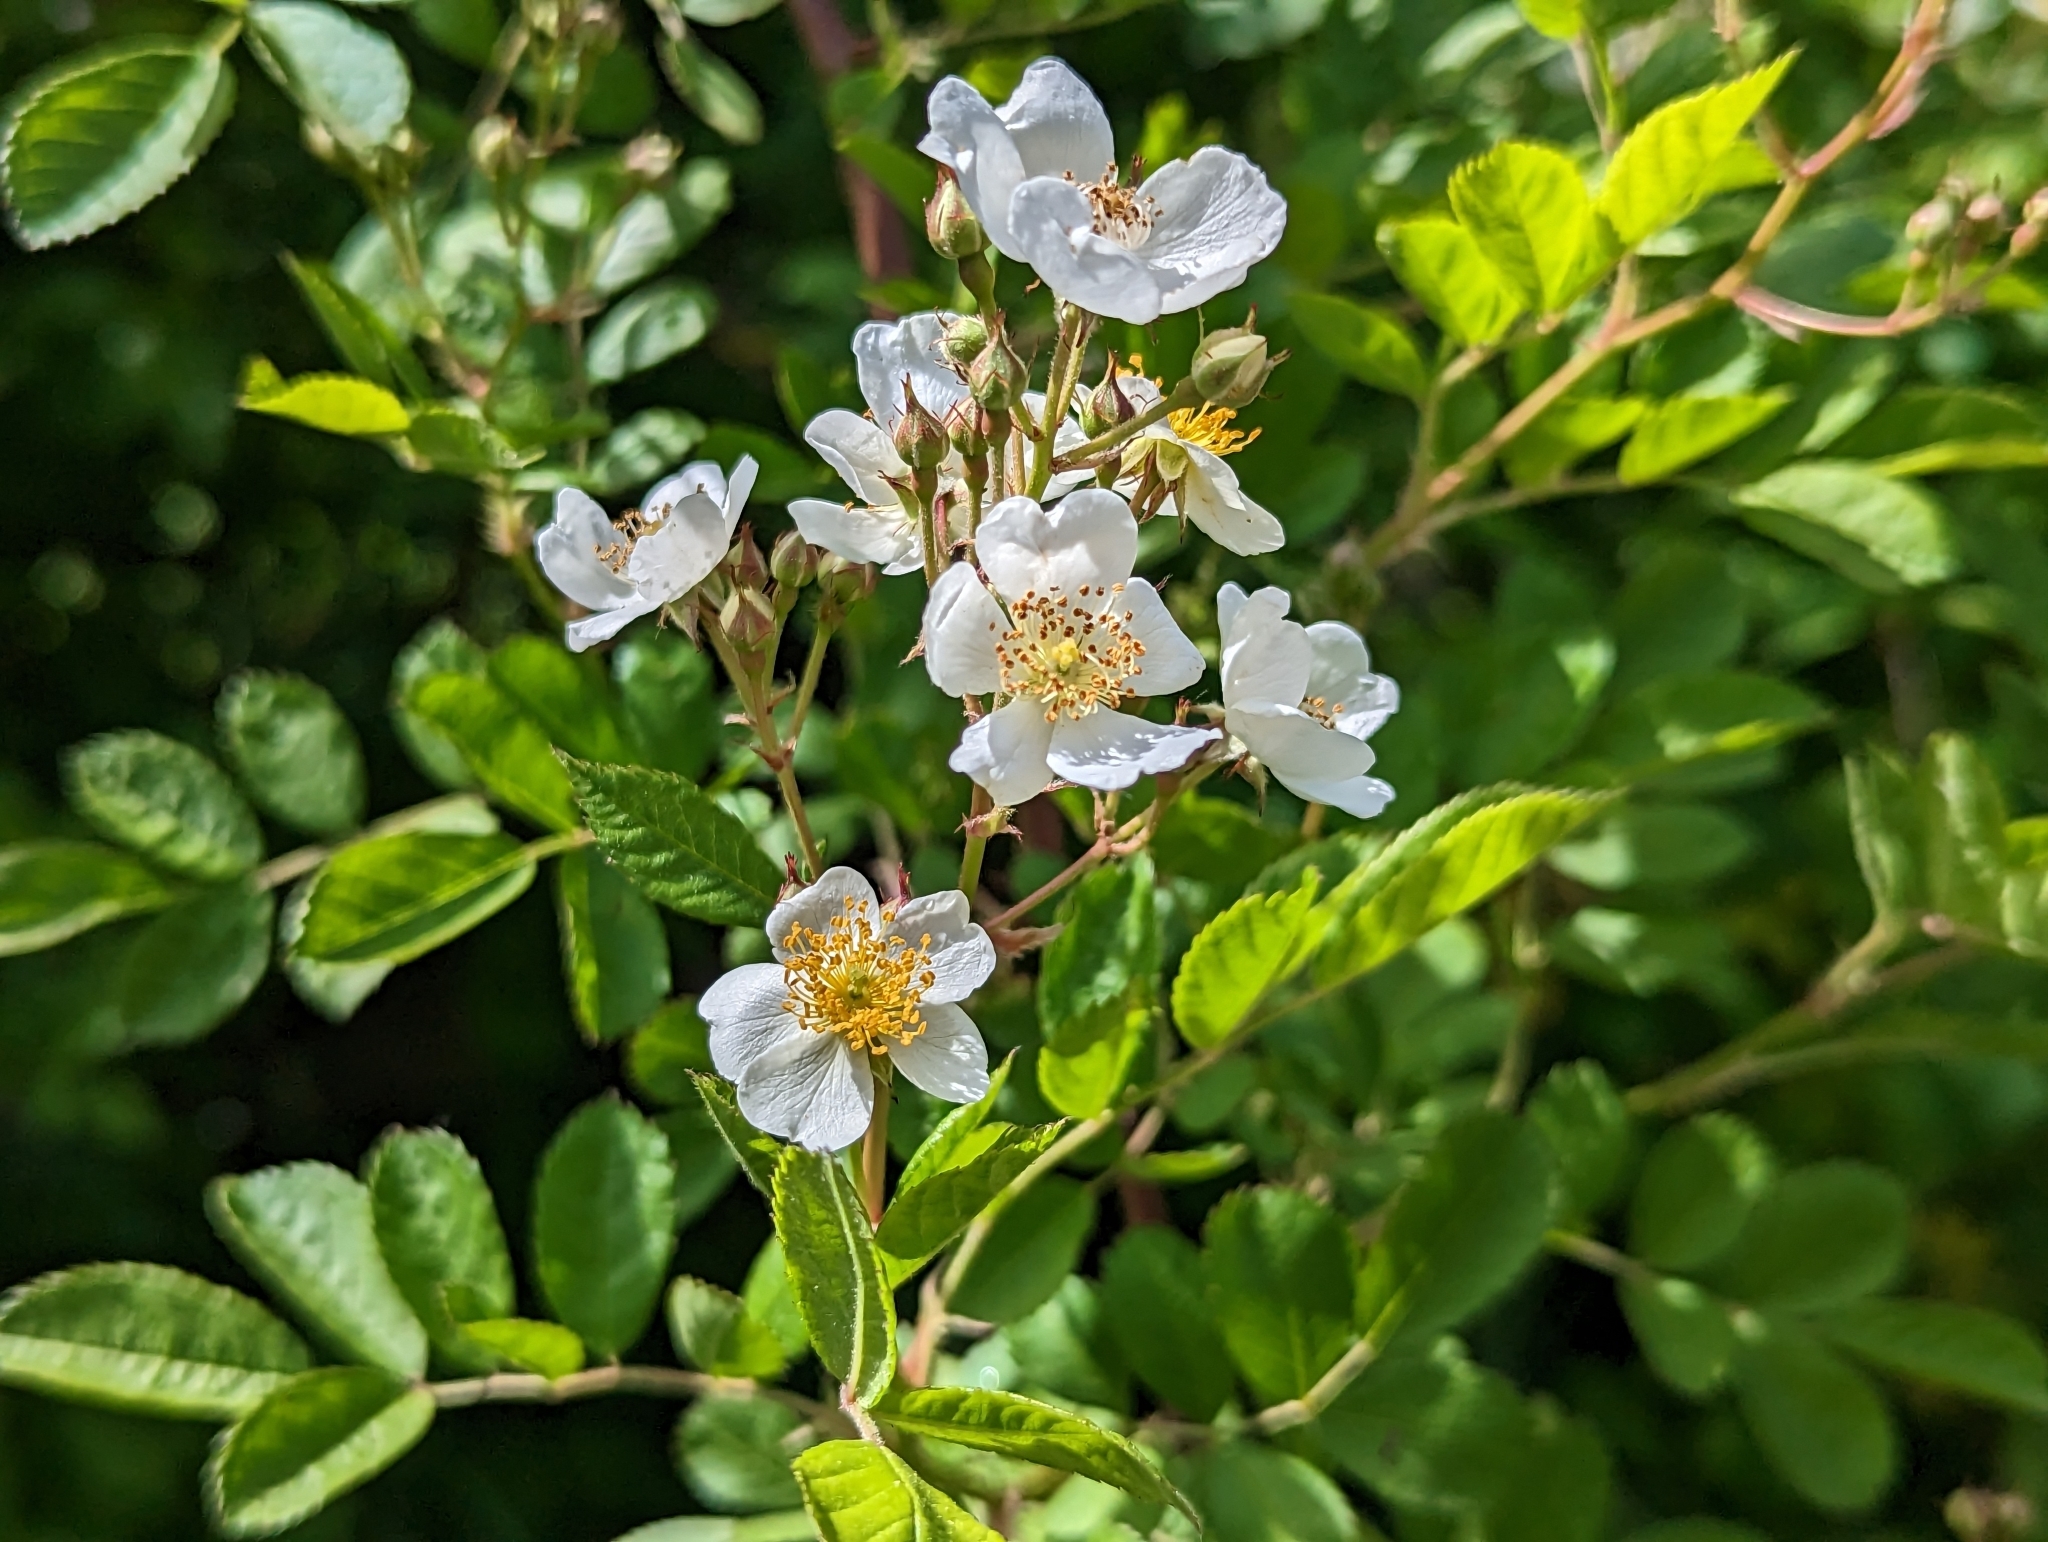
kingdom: Plantae
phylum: Tracheophyta
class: Magnoliopsida
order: Rosales
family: Rosaceae
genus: Rosa
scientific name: Rosa multiflora
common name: Multiflora rose
